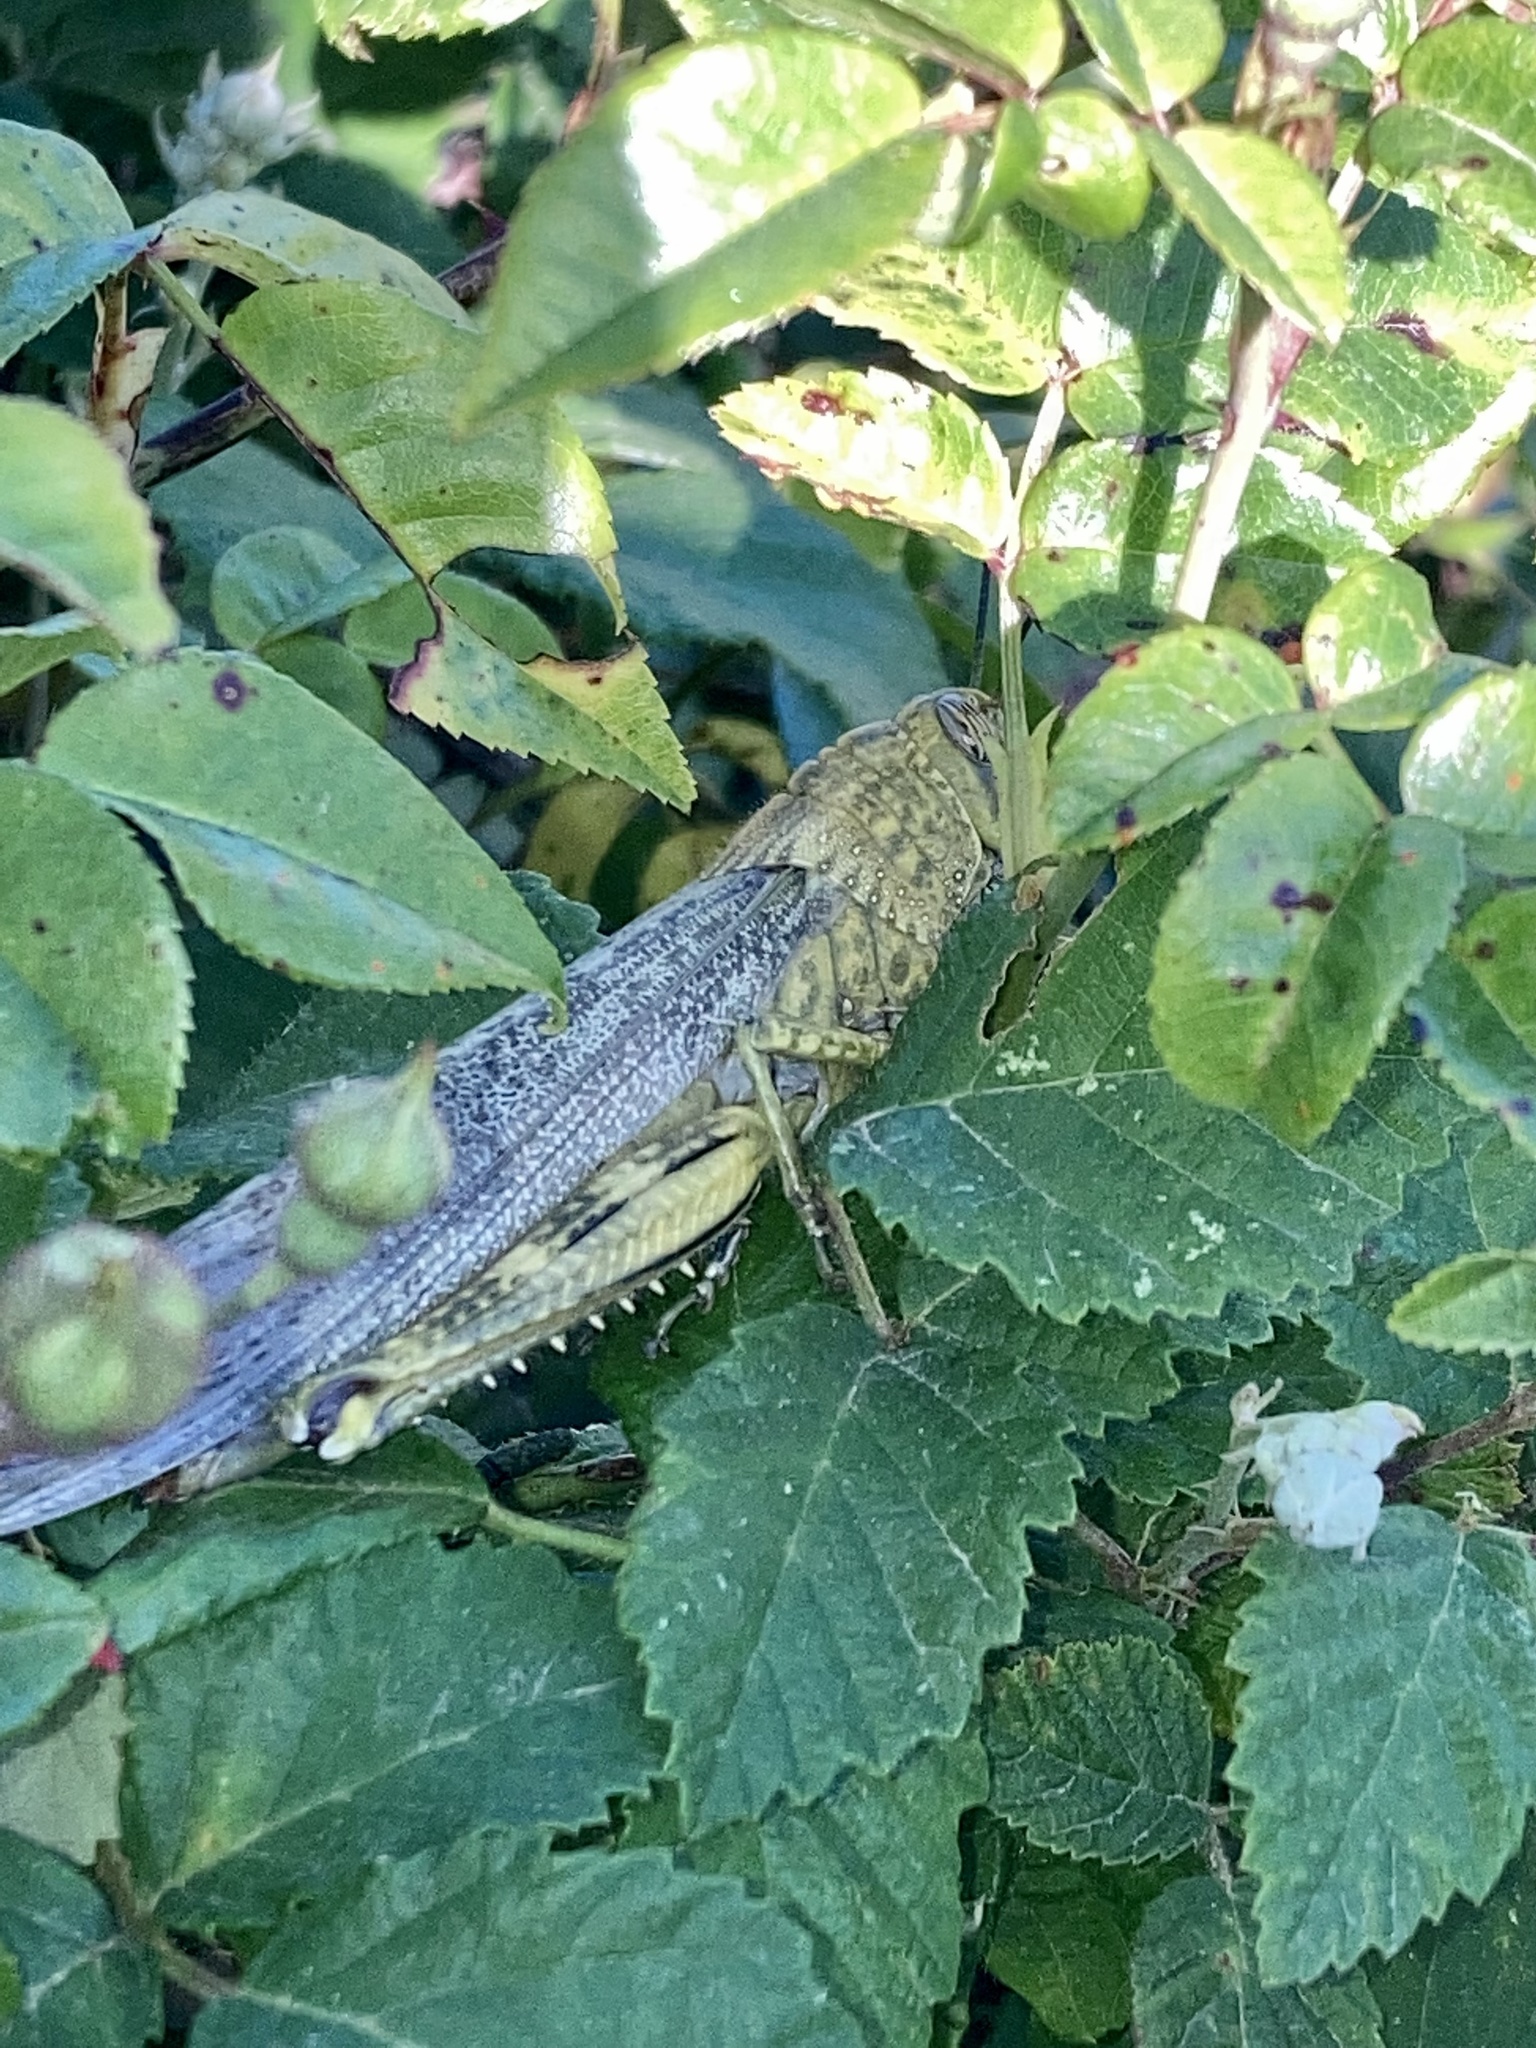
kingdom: Animalia
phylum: Arthropoda
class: Insecta
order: Orthoptera
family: Acrididae
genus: Anacridium
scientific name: Anacridium aegyptium
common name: Egyptian grasshopper
